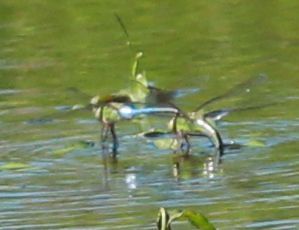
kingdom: Animalia
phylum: Arthropoda
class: Insecta
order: Odonata
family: Aeshnidae
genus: Anax
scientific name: Anax junius
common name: Common green darner
